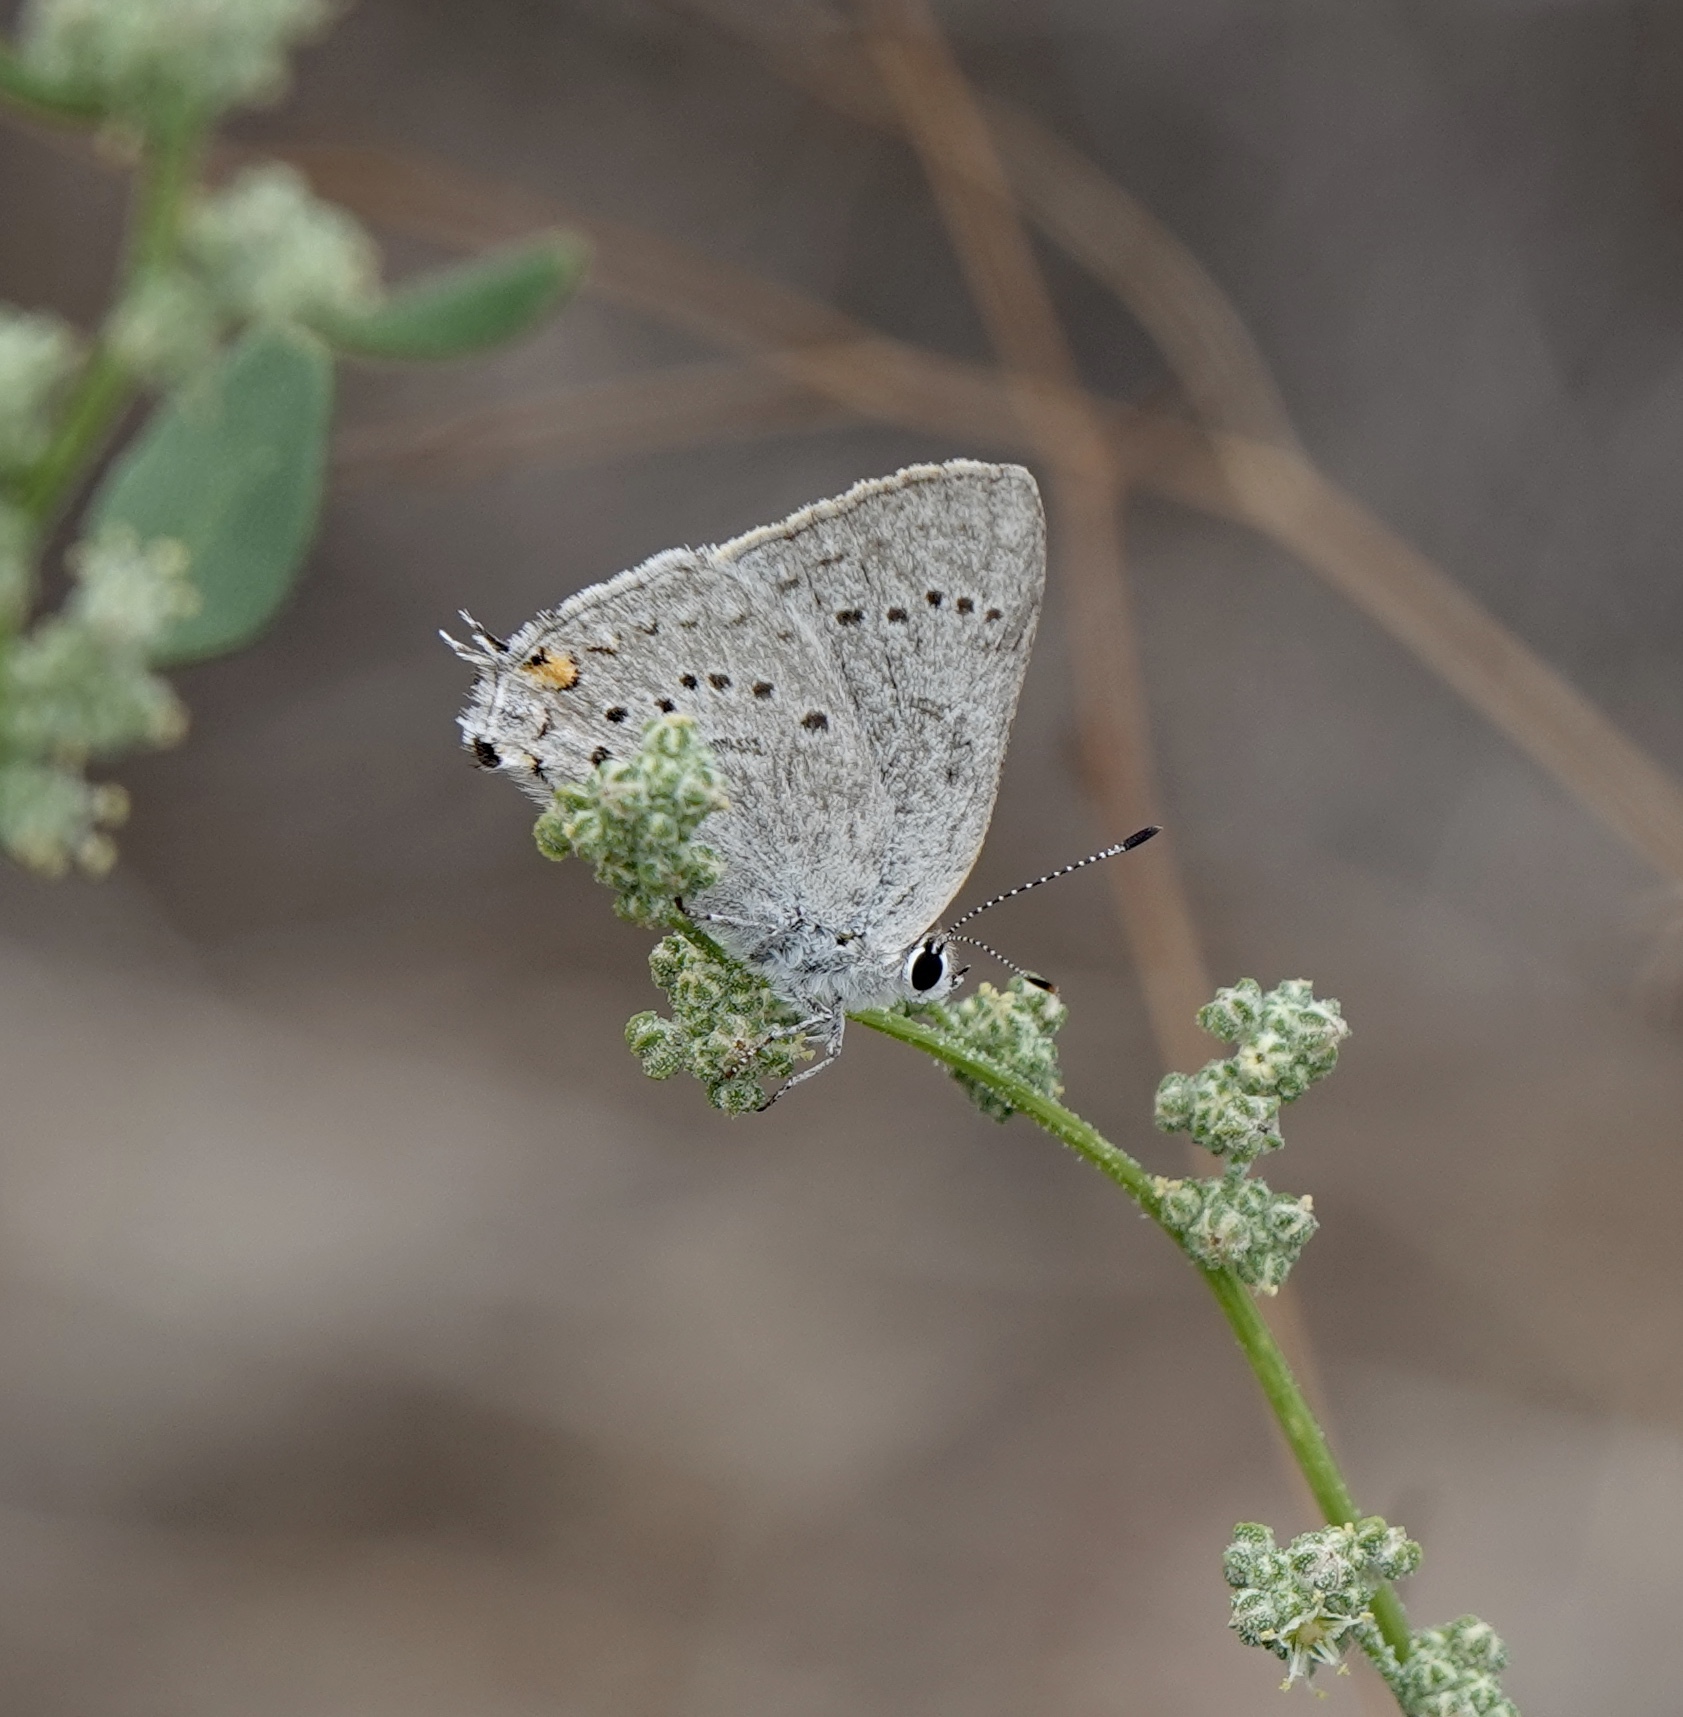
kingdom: Animalia
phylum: Arthropoda
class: Insecta
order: Lepidoptera
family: Lycaenidae
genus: Strymon
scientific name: Strymon sylvinus
